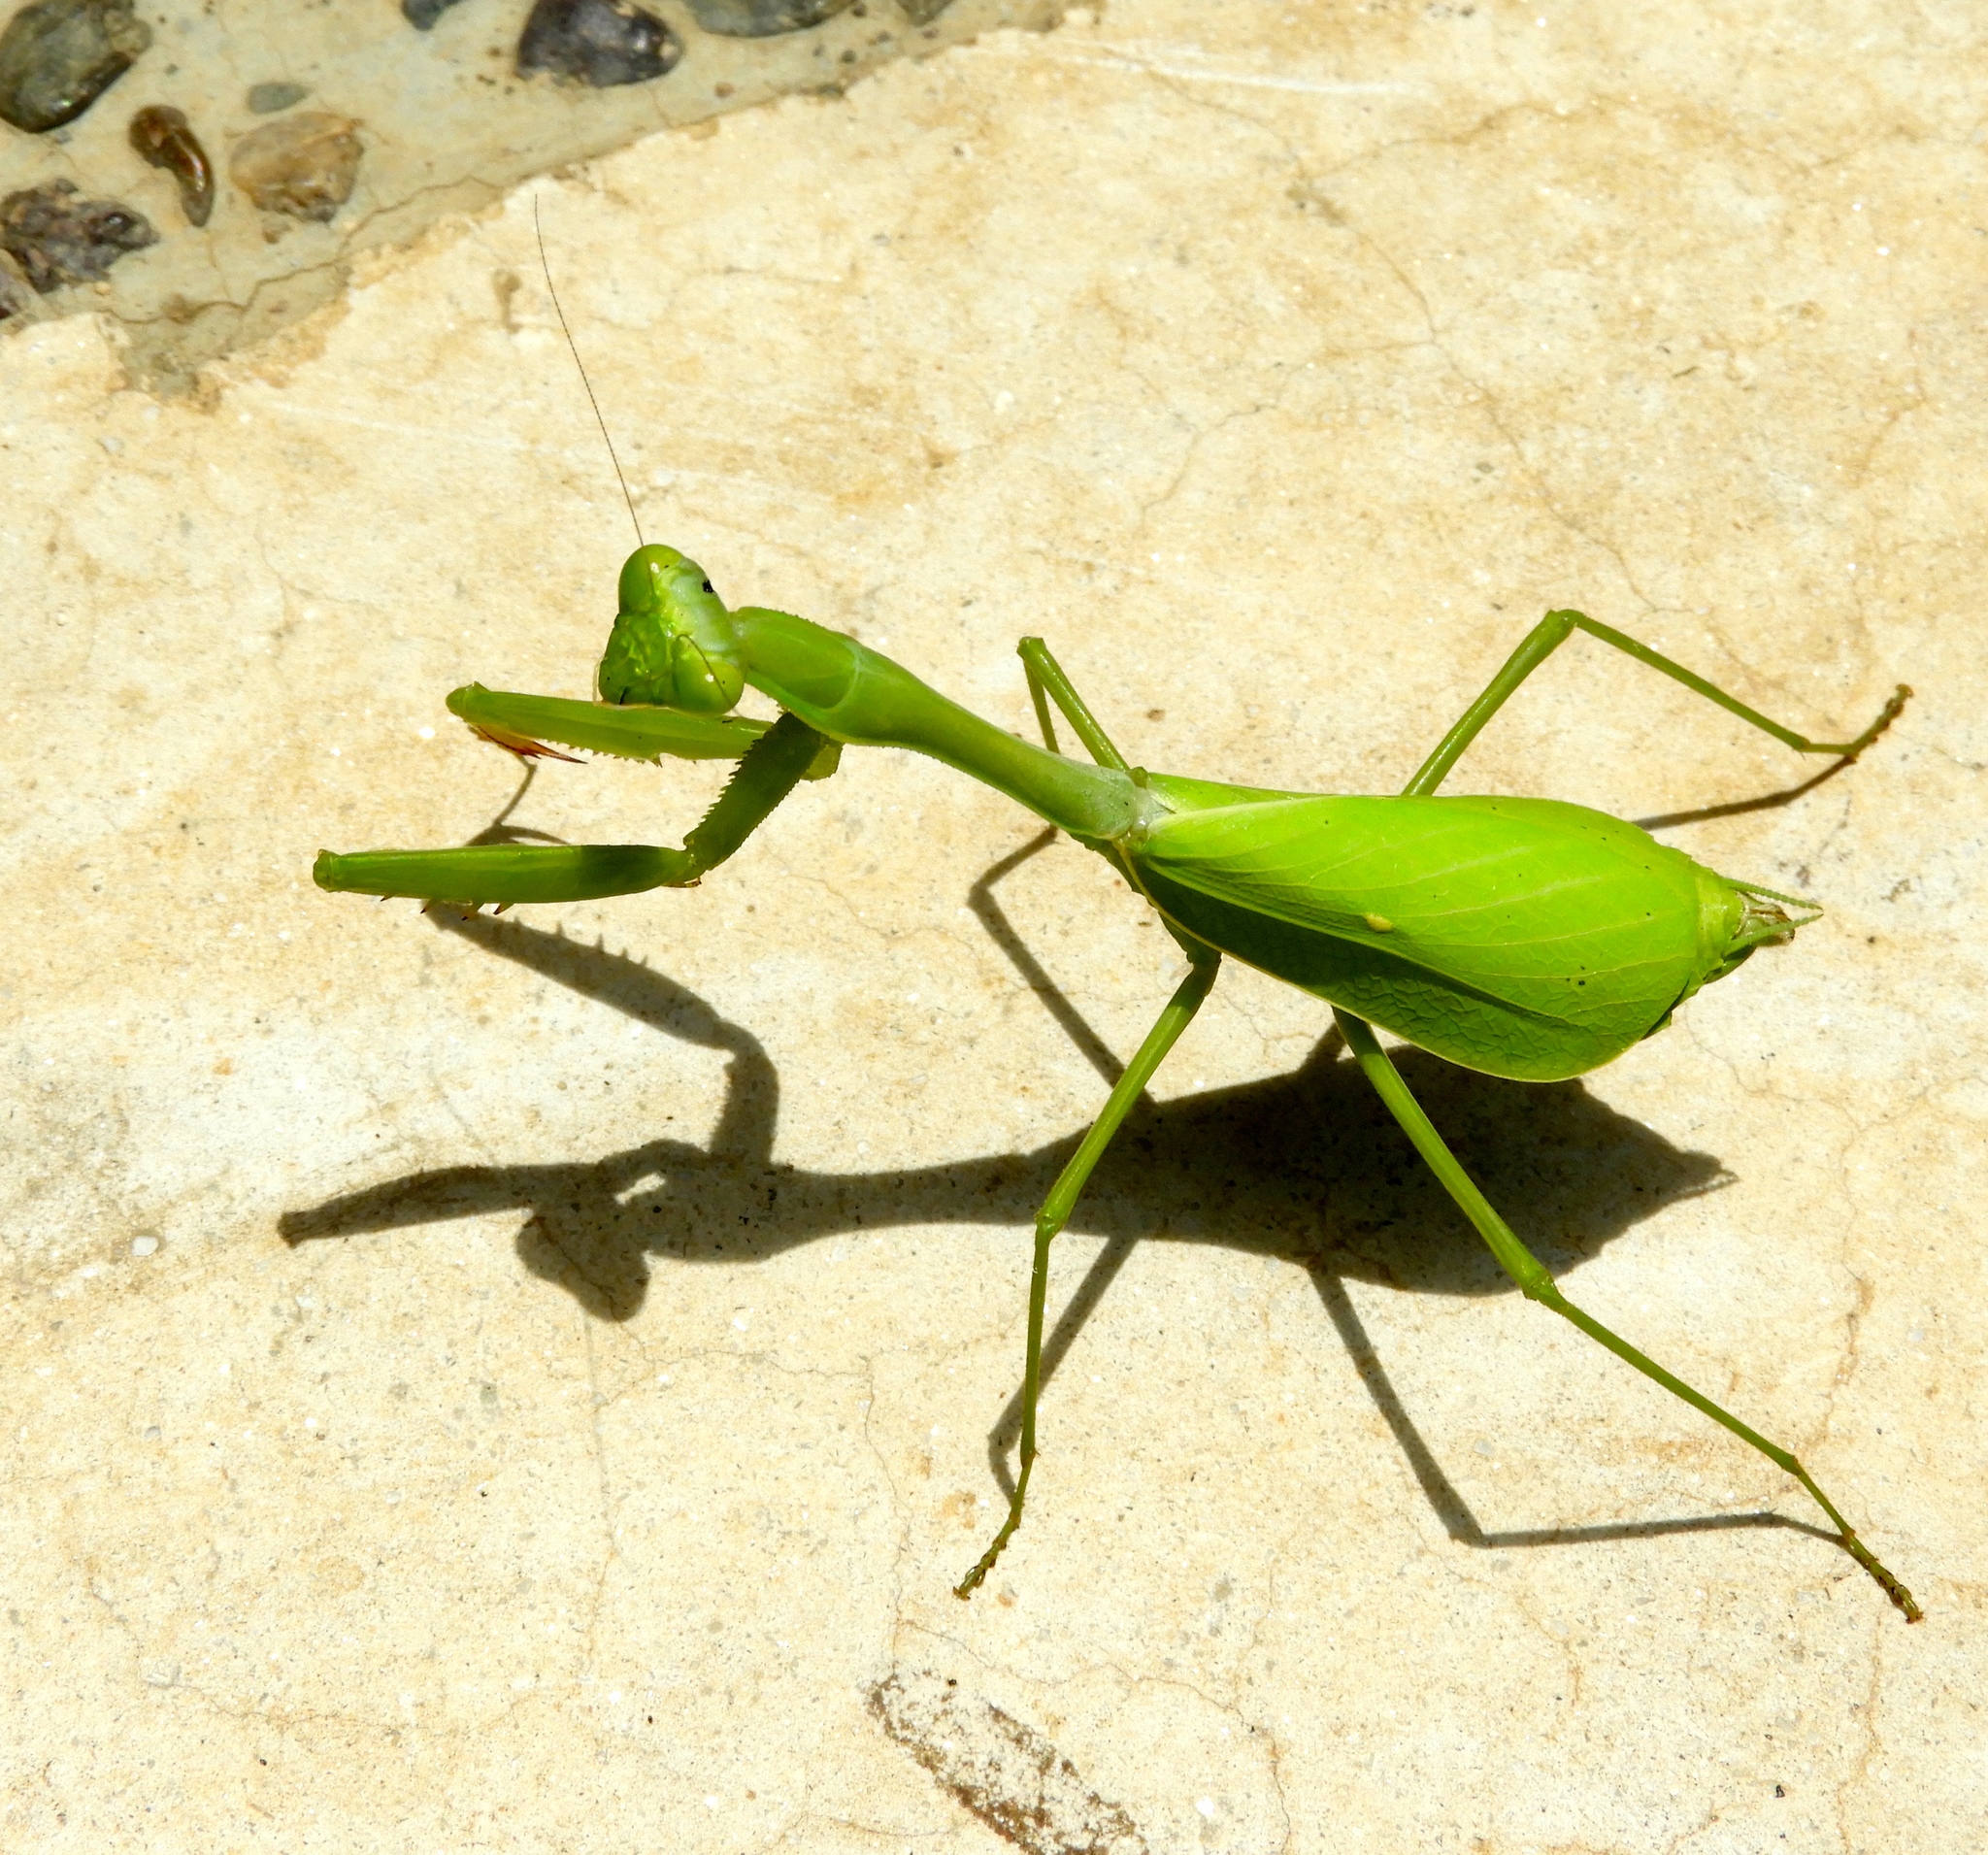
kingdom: Animalia
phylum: Arthropoda
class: Insecta
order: Mantodea
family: Mantidae
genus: Stagmomantis
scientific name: Stagmomantis limbata
